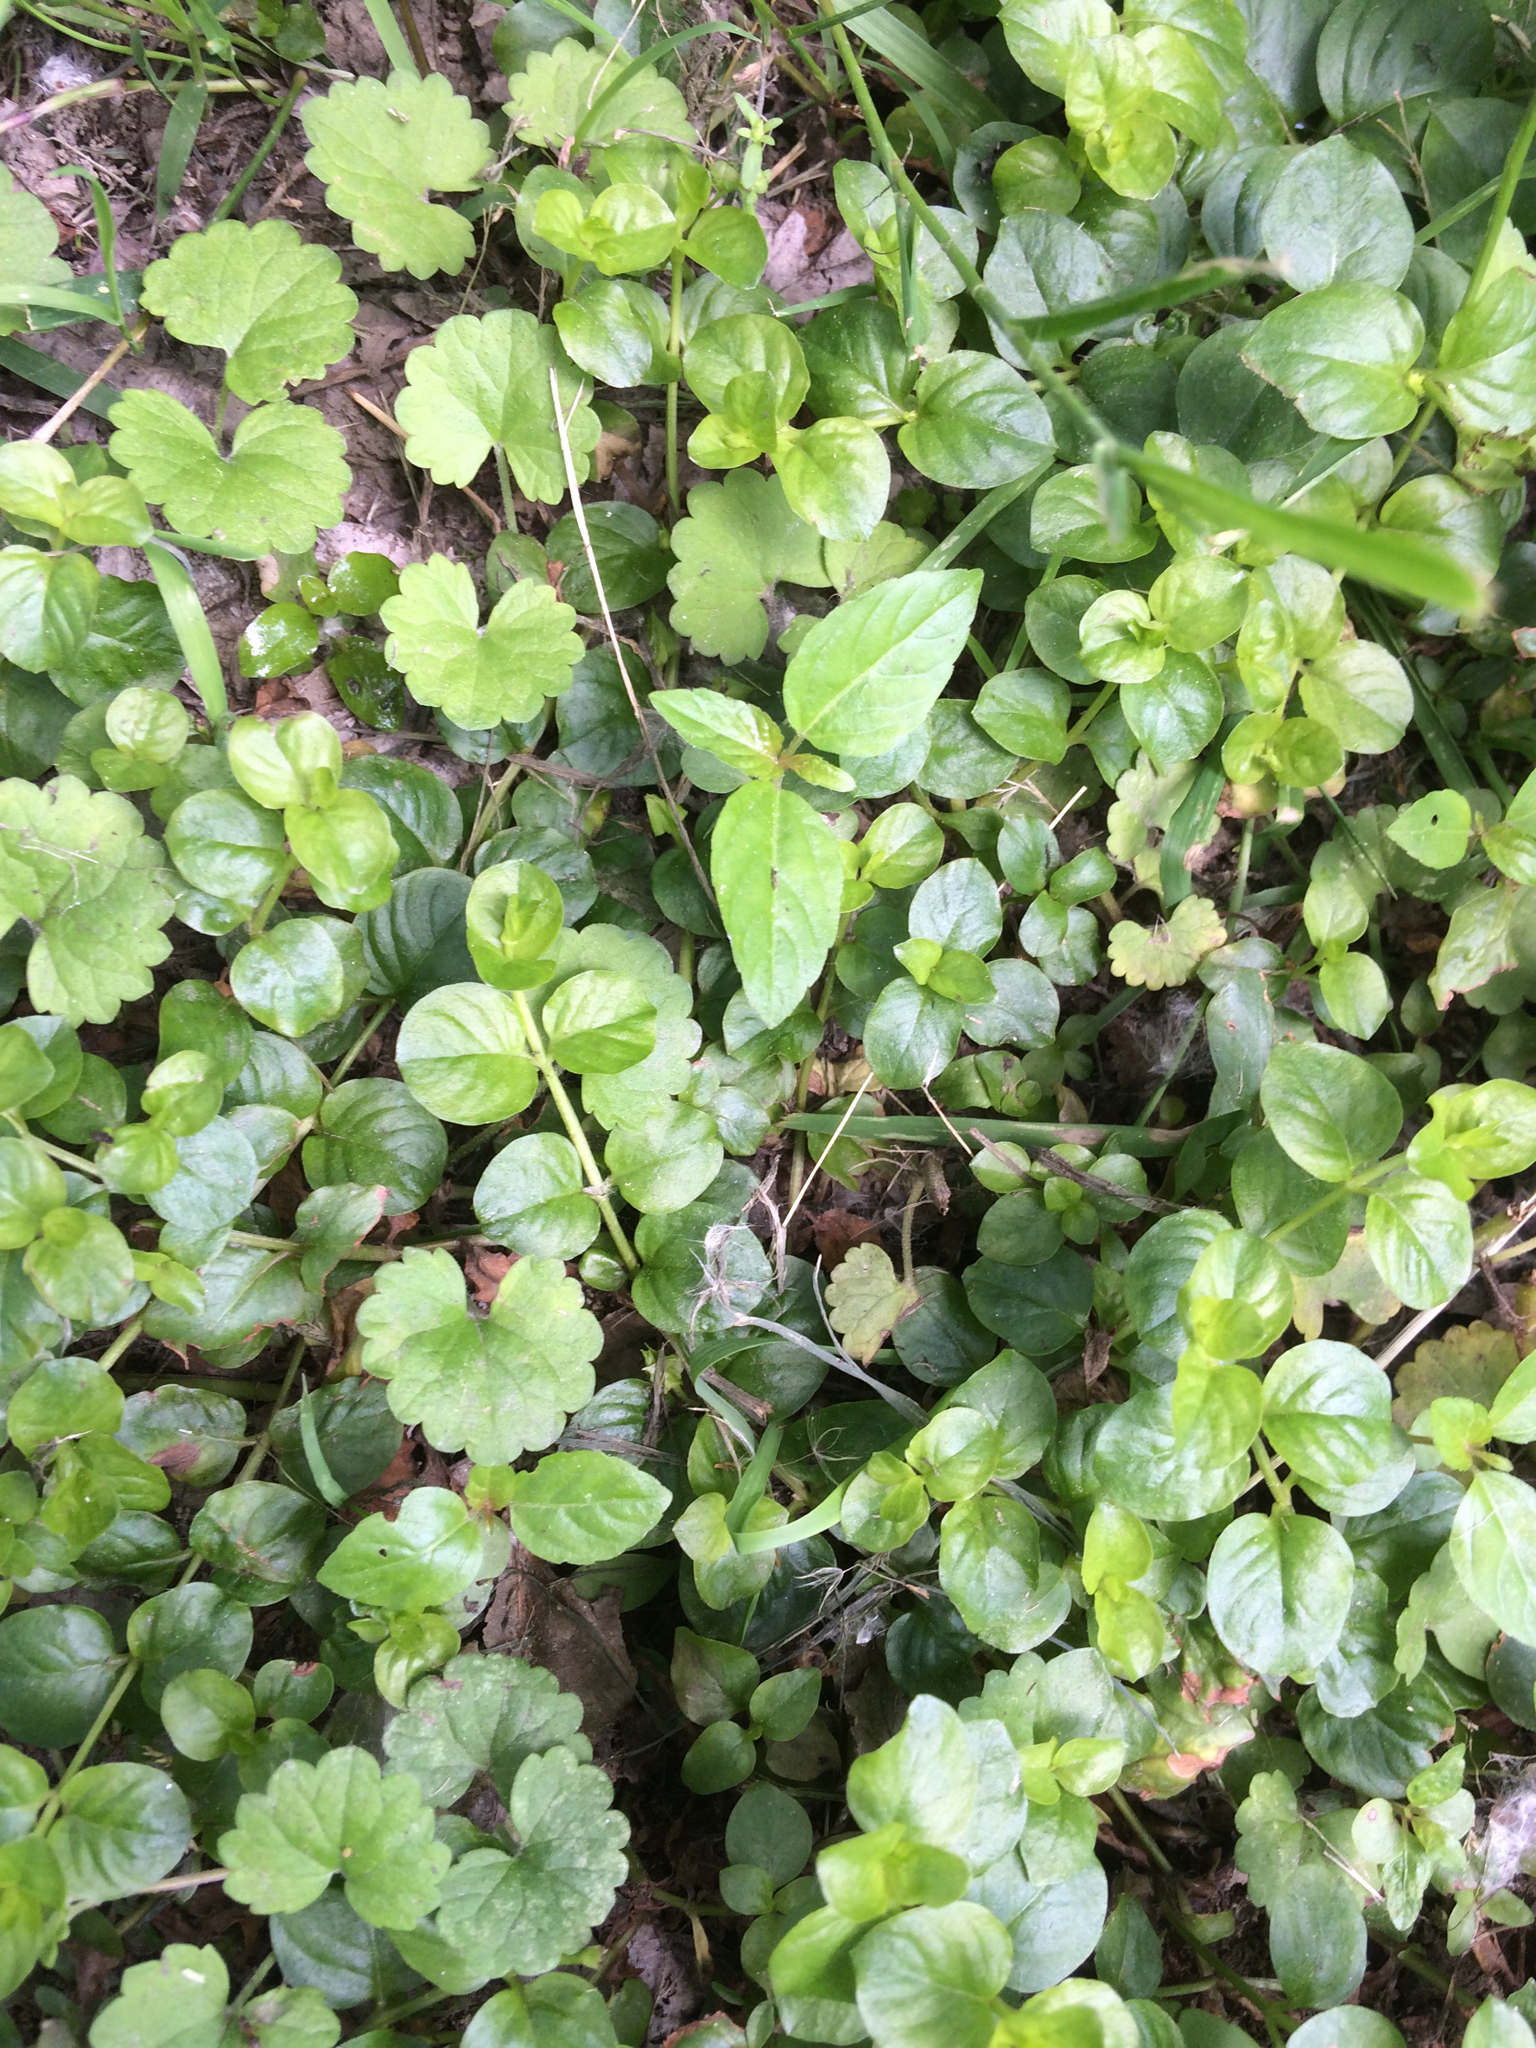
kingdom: Plantae
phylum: Tracheophyta
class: Magnoliopsida
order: Ericales
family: Primulaceae
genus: Lysimachia
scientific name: Lysimachia nummularia
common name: Moneywort
